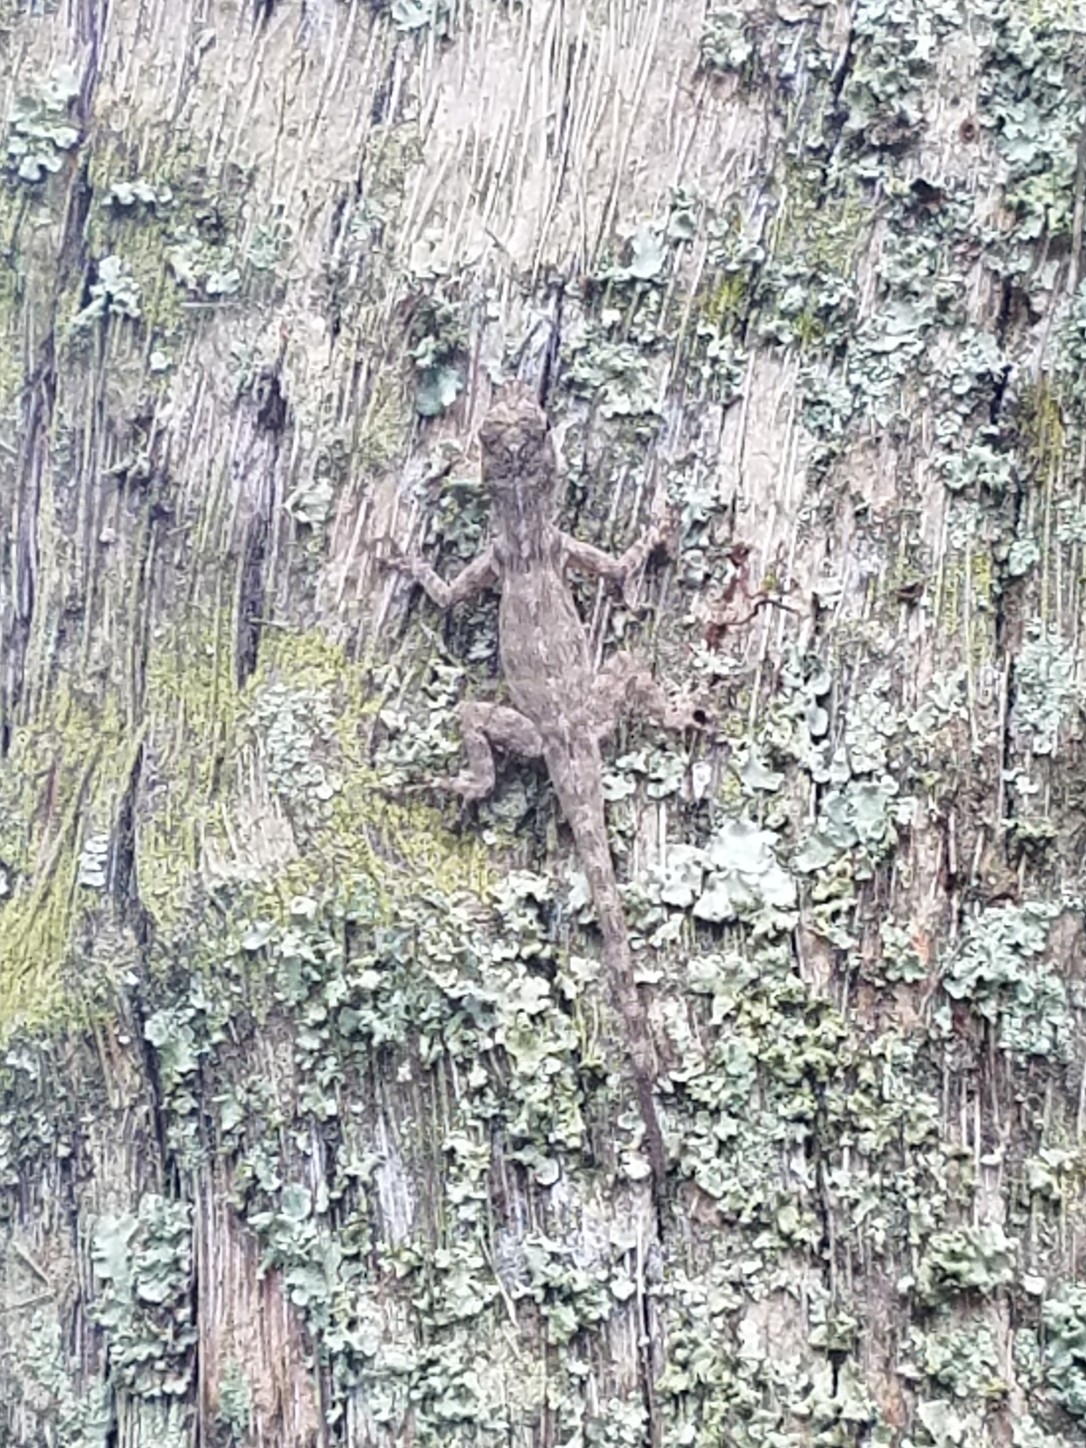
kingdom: Animalia
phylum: Chordata
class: Squamata
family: Dactyloidae
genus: Anolis
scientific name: Anolis distichus
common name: Bark anole
